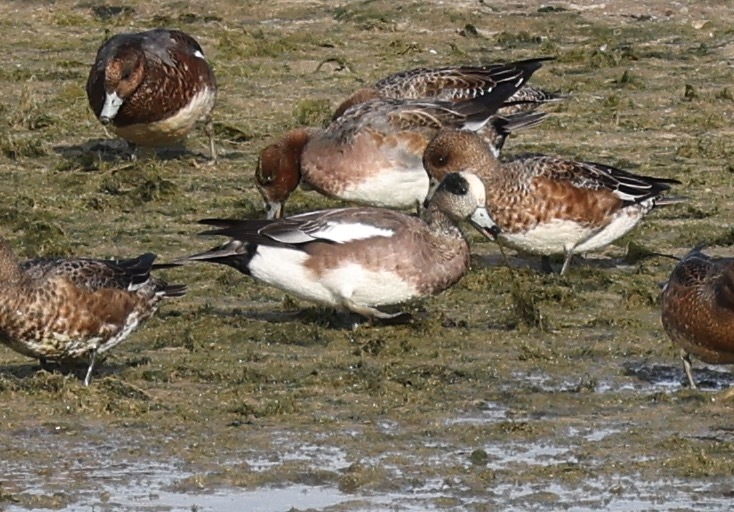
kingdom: Animalia
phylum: Chordata
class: Aves
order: Anseriformes
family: Anatidae
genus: Mareca
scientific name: Mareca americana
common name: American wigeon
